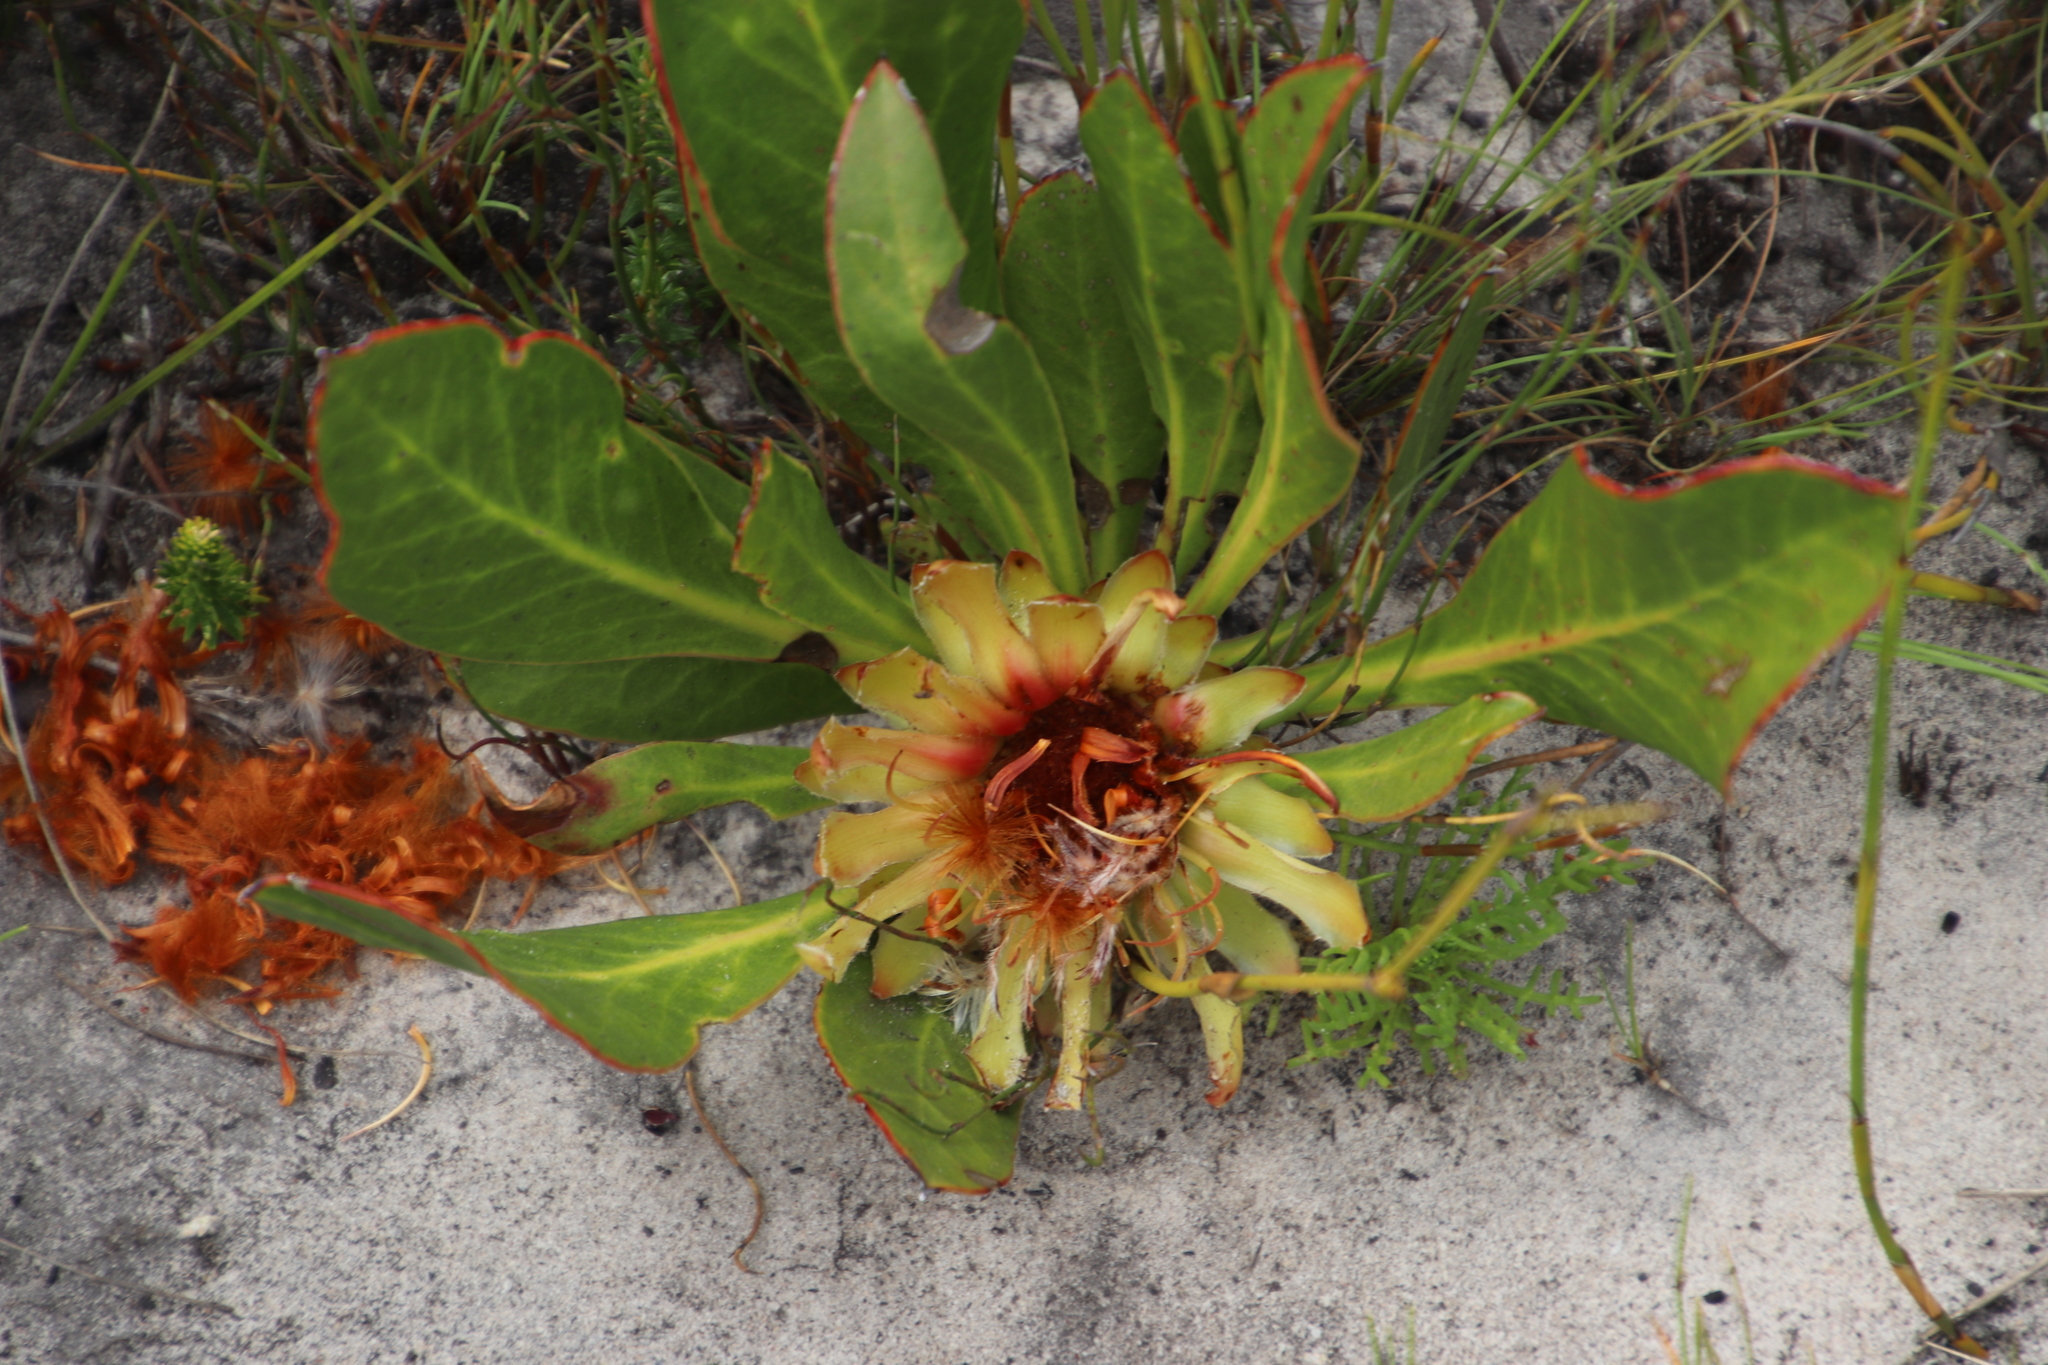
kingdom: Plantae
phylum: Tracheophyta
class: Magnoliopsida
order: Proteales
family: Proteaceae
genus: Protea
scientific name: Protea acaulos
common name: Common ground sugarbush
